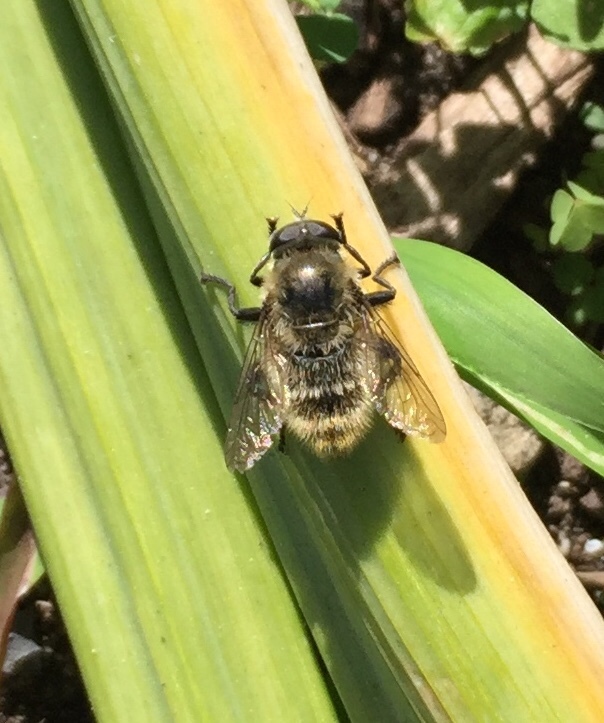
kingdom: Animalia
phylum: Arthropoda
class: Insecta
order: Diptera
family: Syrphidae
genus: Merodon
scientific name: Merodon equestris
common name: Greater bulb-fly
